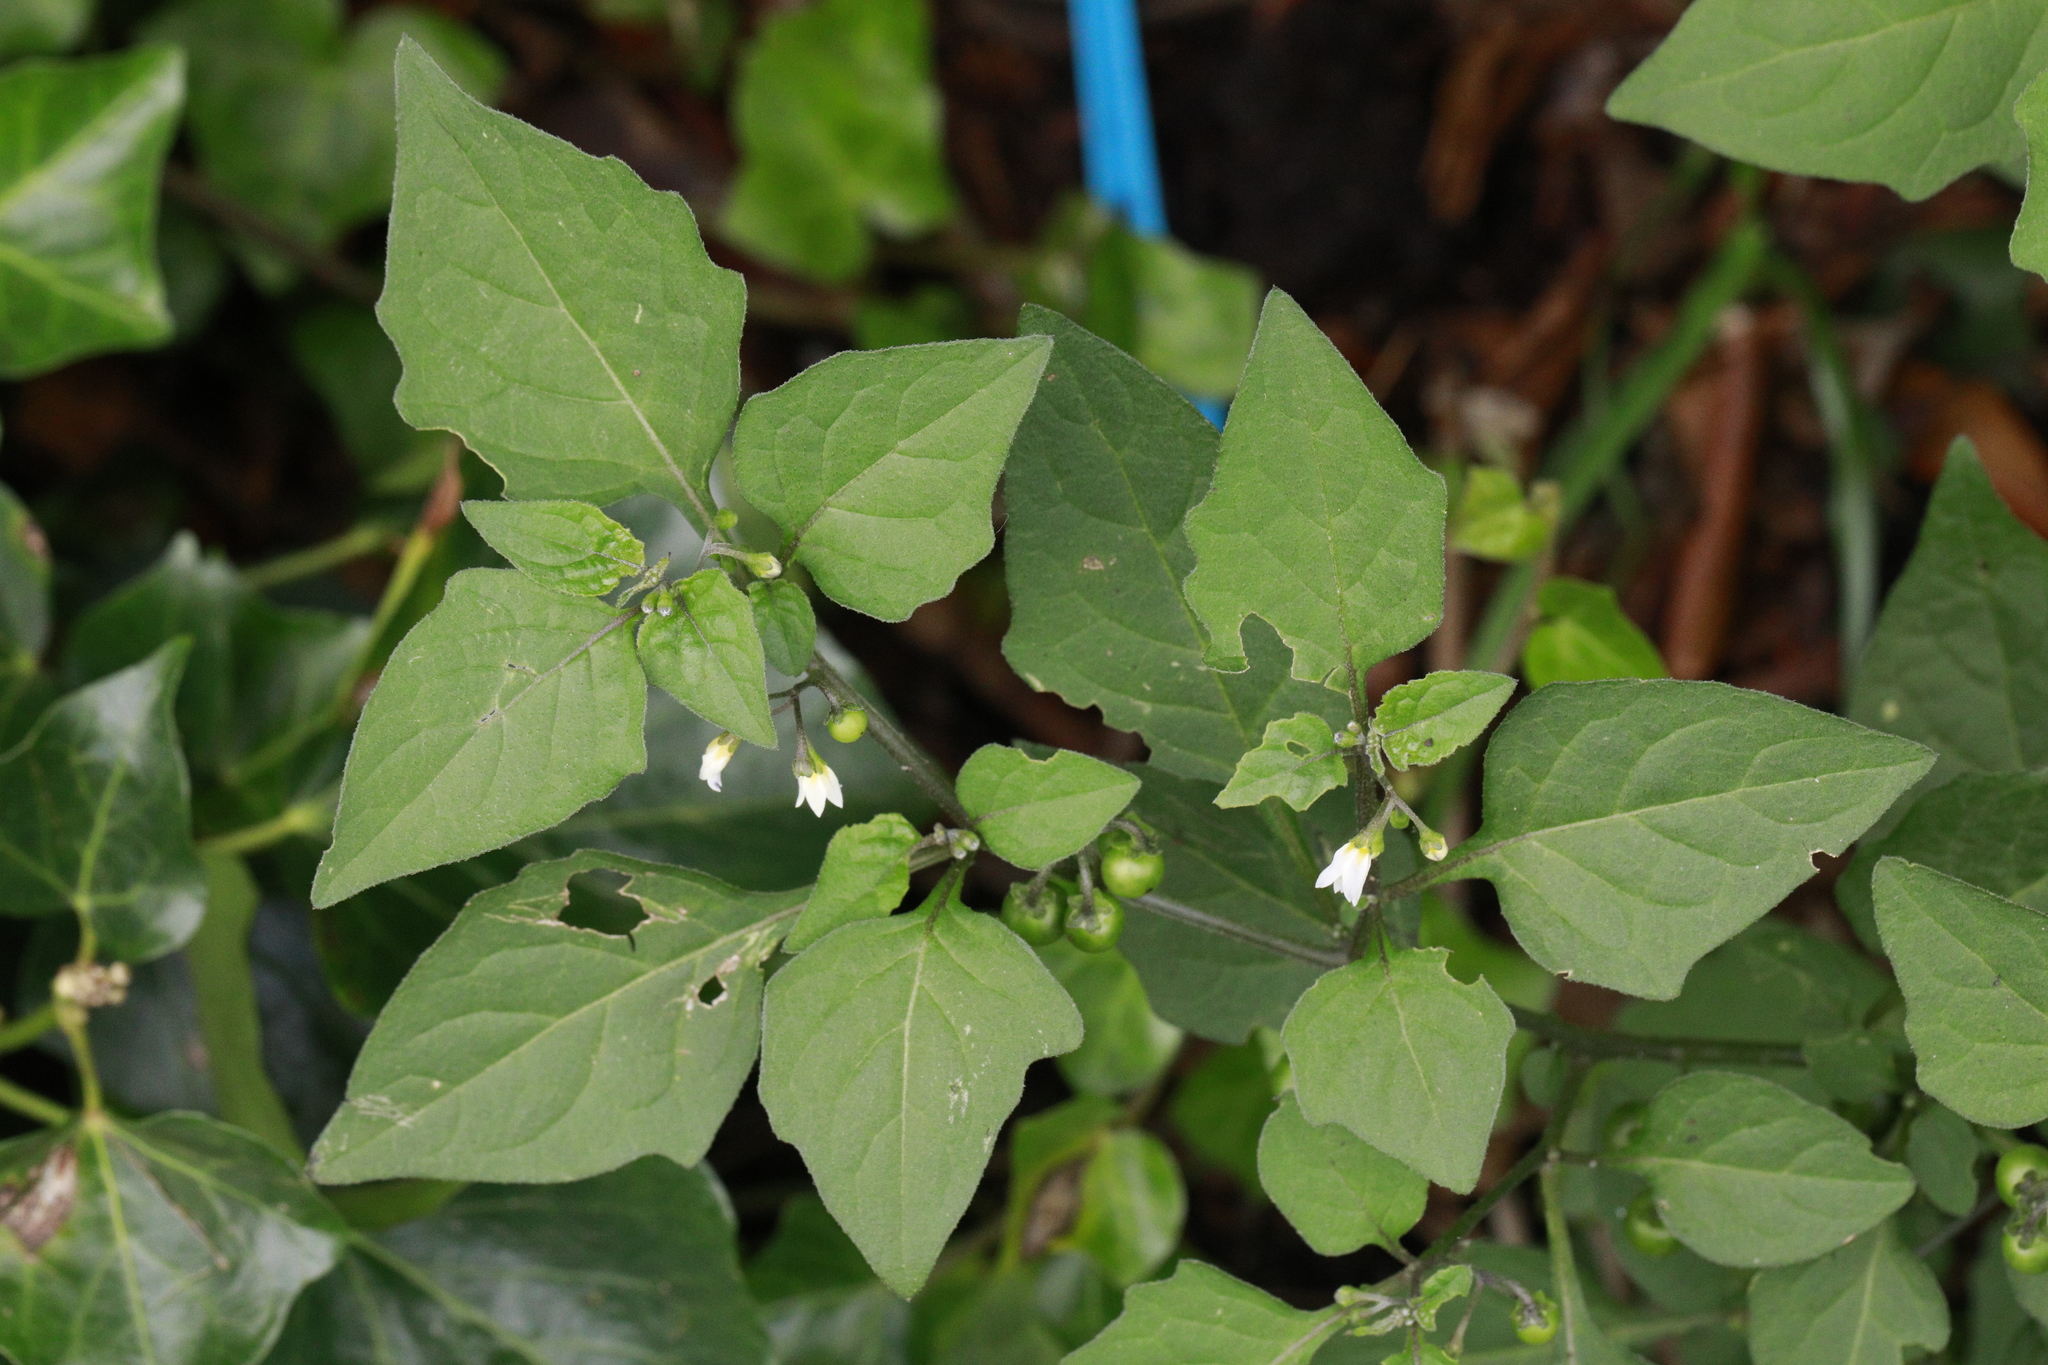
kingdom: Plantae
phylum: Tracheophyta
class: Magnoliopsida
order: Solanales
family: Solanaceae
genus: Solanum
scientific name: Solanum nigrum
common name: Black nightshade
